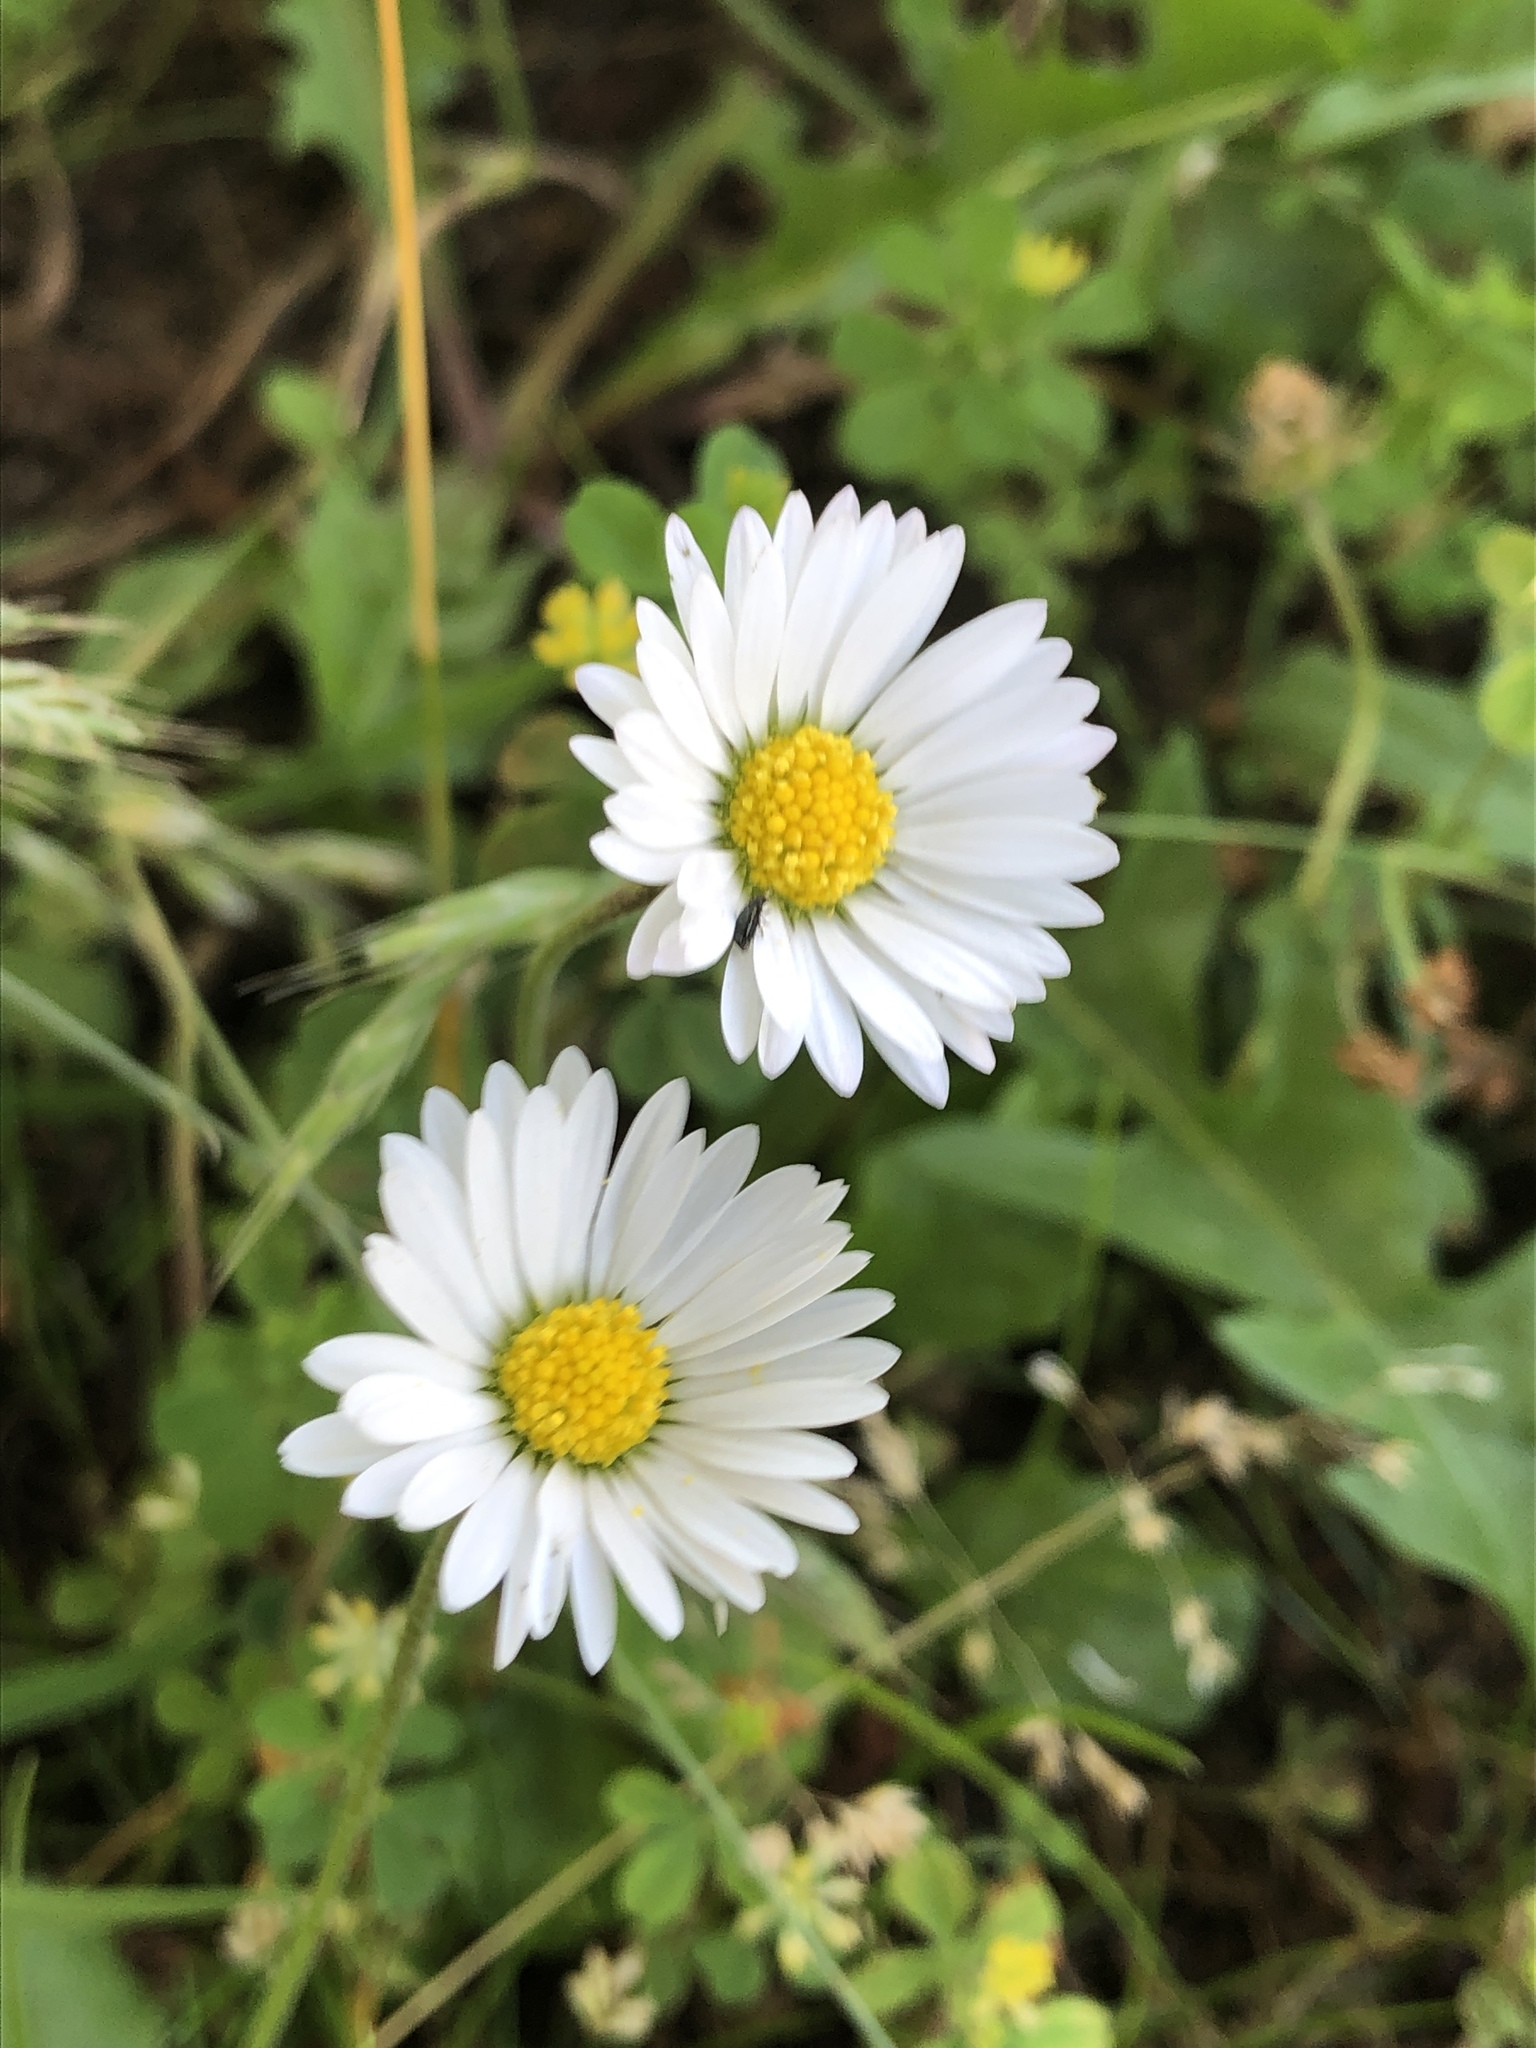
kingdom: Plantae
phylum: Tracheophyta
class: Magnoliopsida
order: Asterales
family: Asteraceae
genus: Bellis
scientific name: Bellis perennis
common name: Lawndaisy
